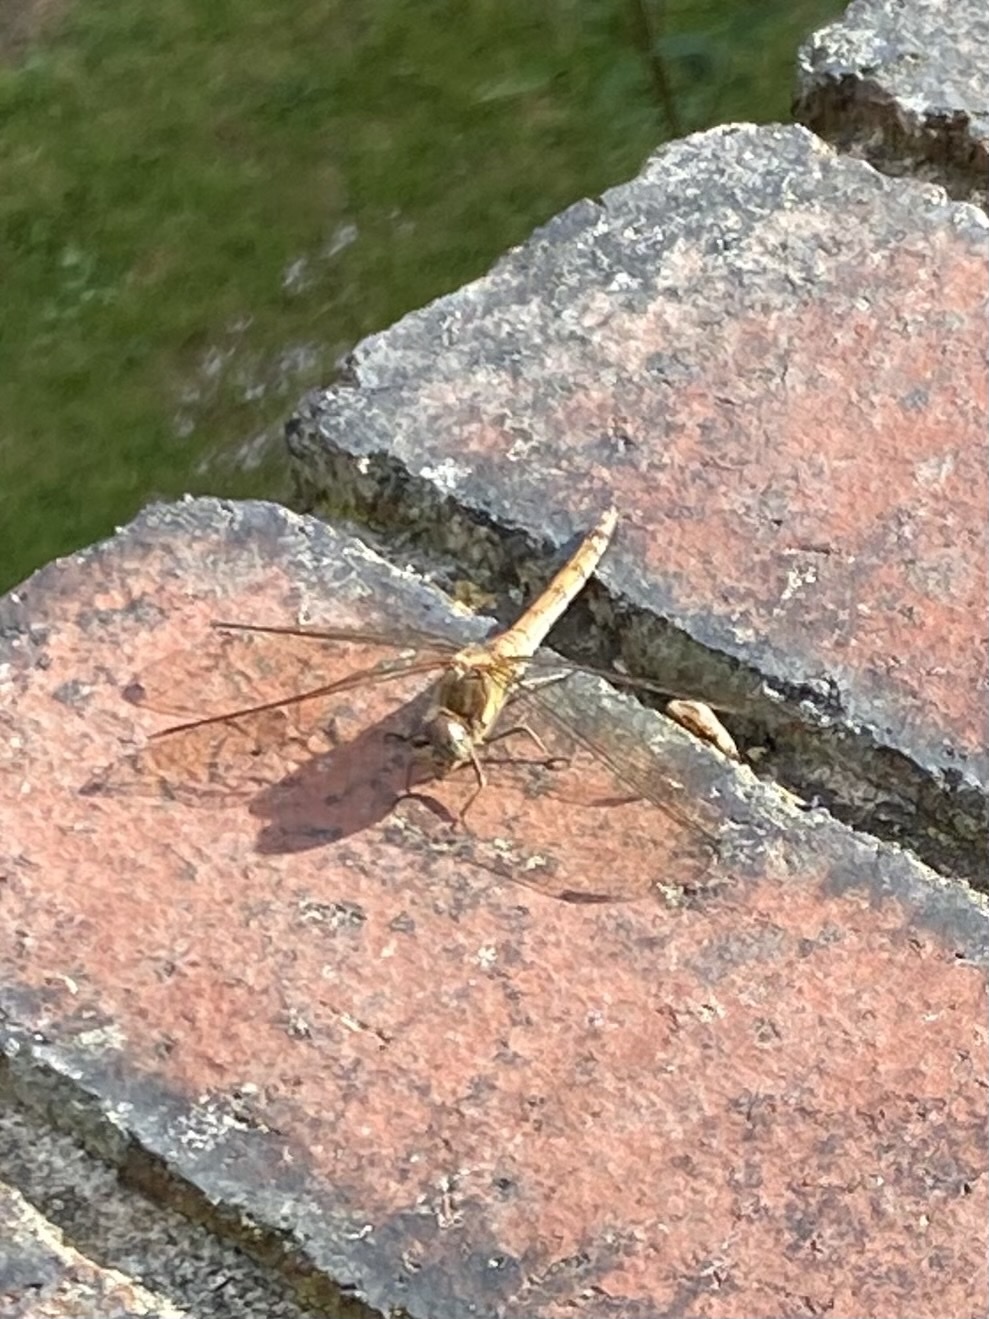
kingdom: Animalia
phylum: Arthropoda
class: Insecta
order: Odonata
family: Libellulidae
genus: Sympetrum
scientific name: Sympetrum striolatum
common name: Common darter
